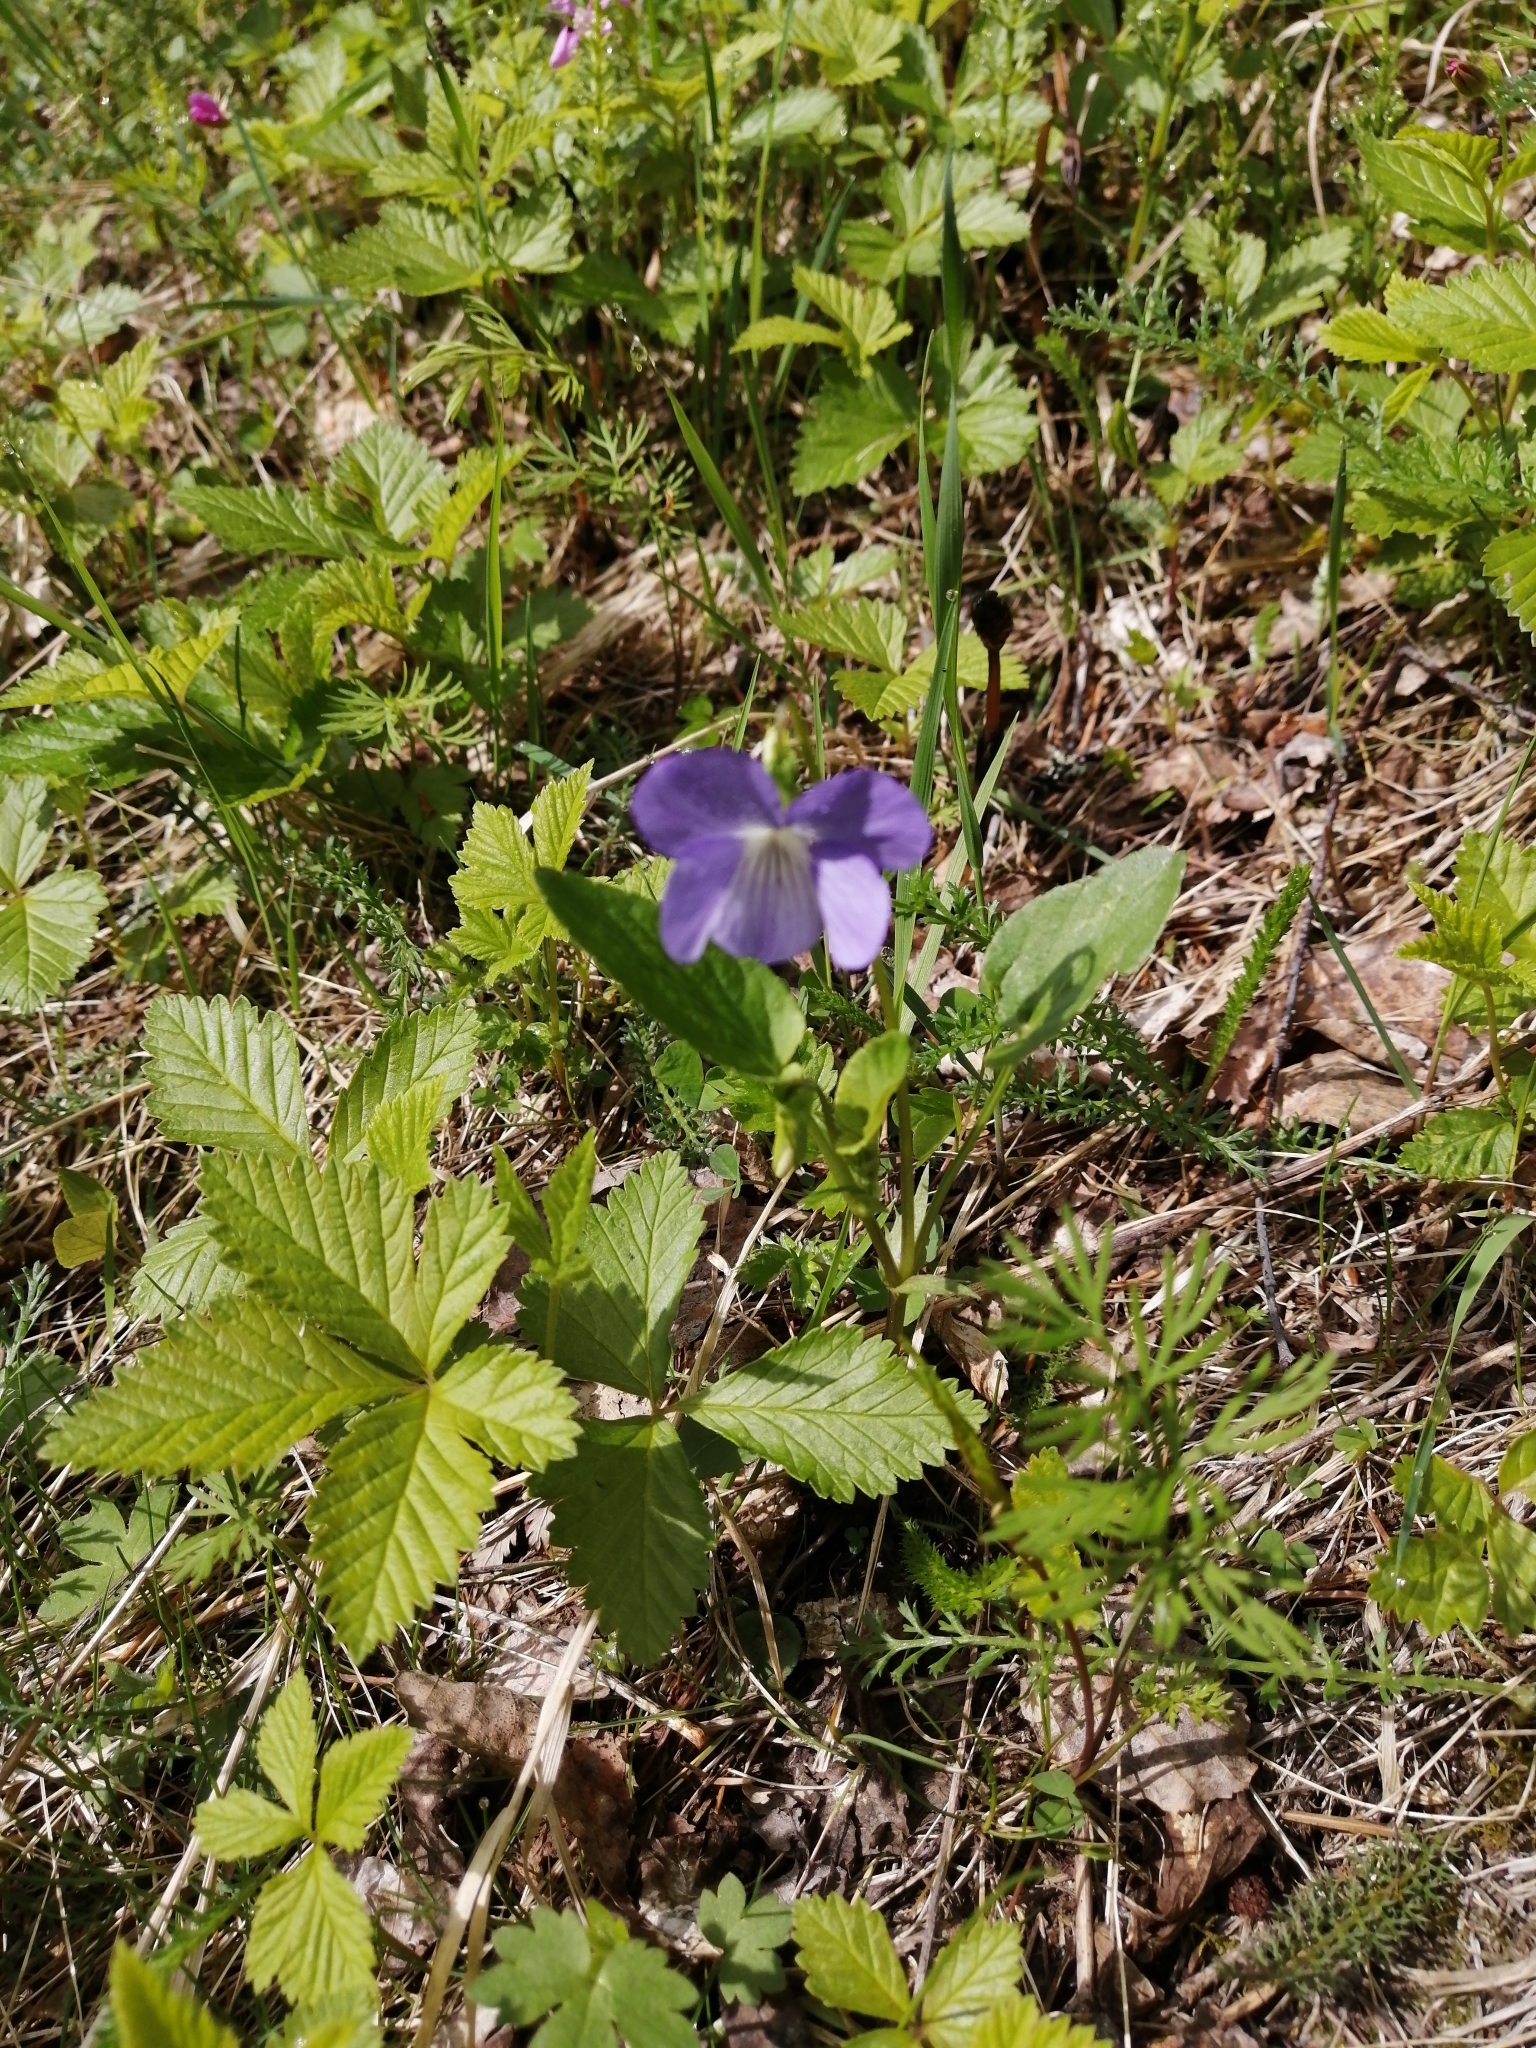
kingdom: Plantae
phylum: Tracheophyta
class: Magnoliopsida
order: Malpighiales
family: Violaceae
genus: Viola
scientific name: Viola
